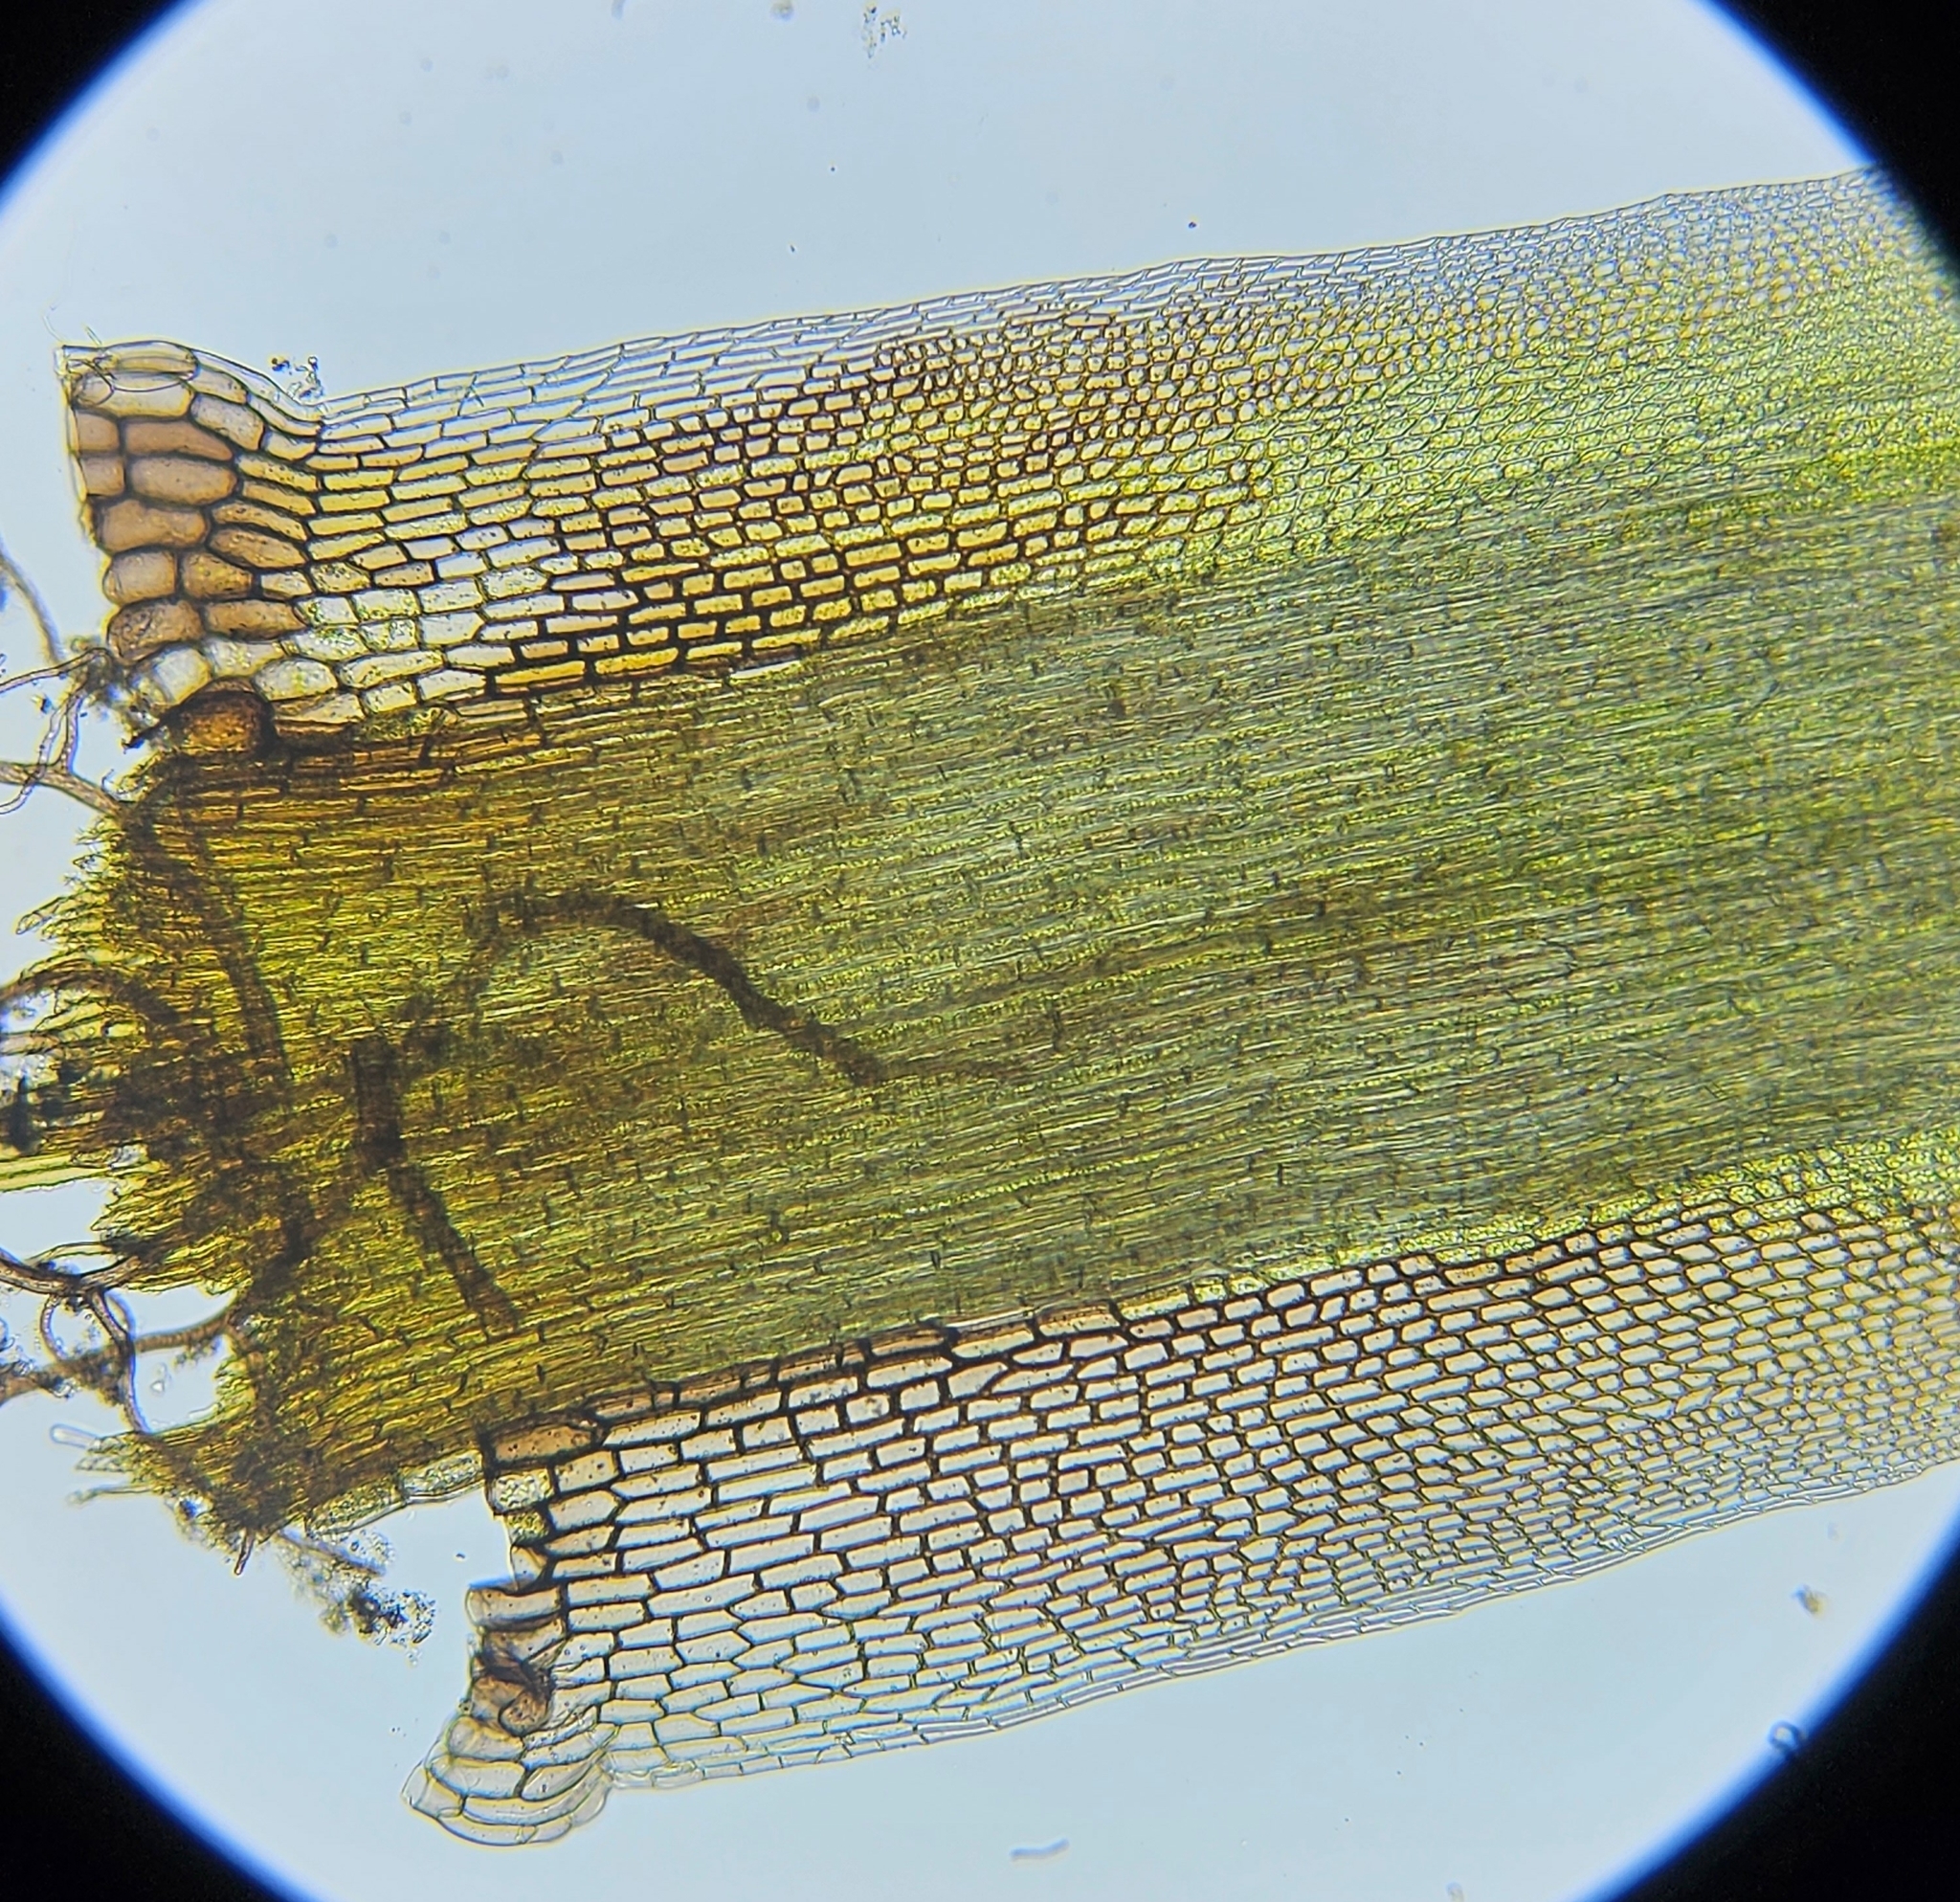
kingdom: Plantae
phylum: Bryophyta
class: Bryopsida
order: Dicranales
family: Leucobryaceae
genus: Campylopus
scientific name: Campylopus atrovirens
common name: Bristly swan-neck moss
